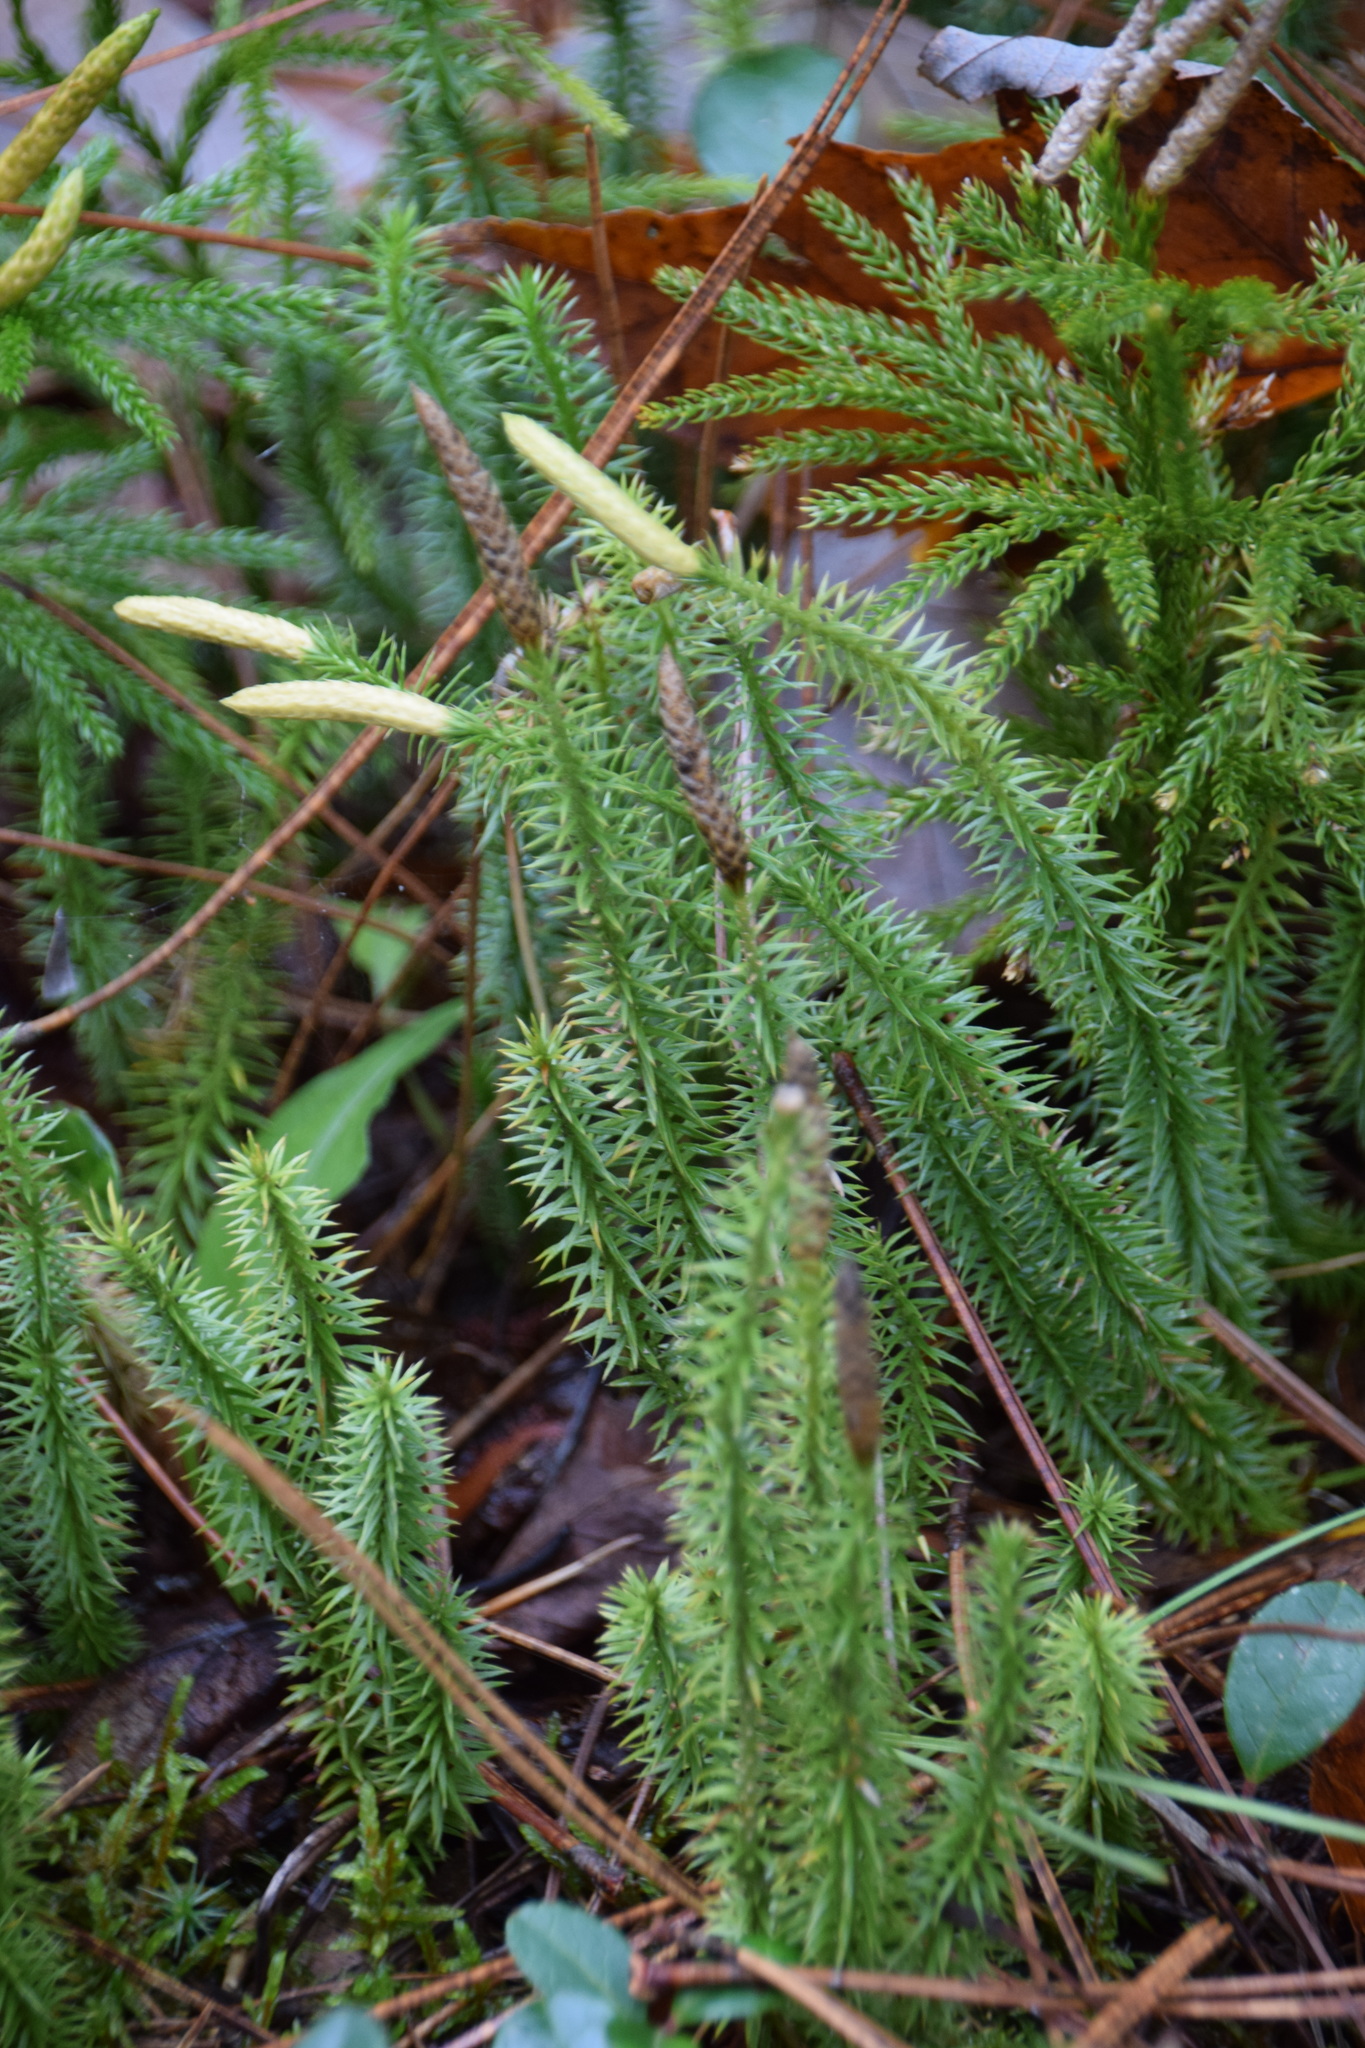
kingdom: Plantae
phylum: Tracheophyta
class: Lycopodiopsida
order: Lycopodiales
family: Lycopodiaceae
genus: Spinulum
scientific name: Spinulum annotinum
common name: Interrupted club-moss
